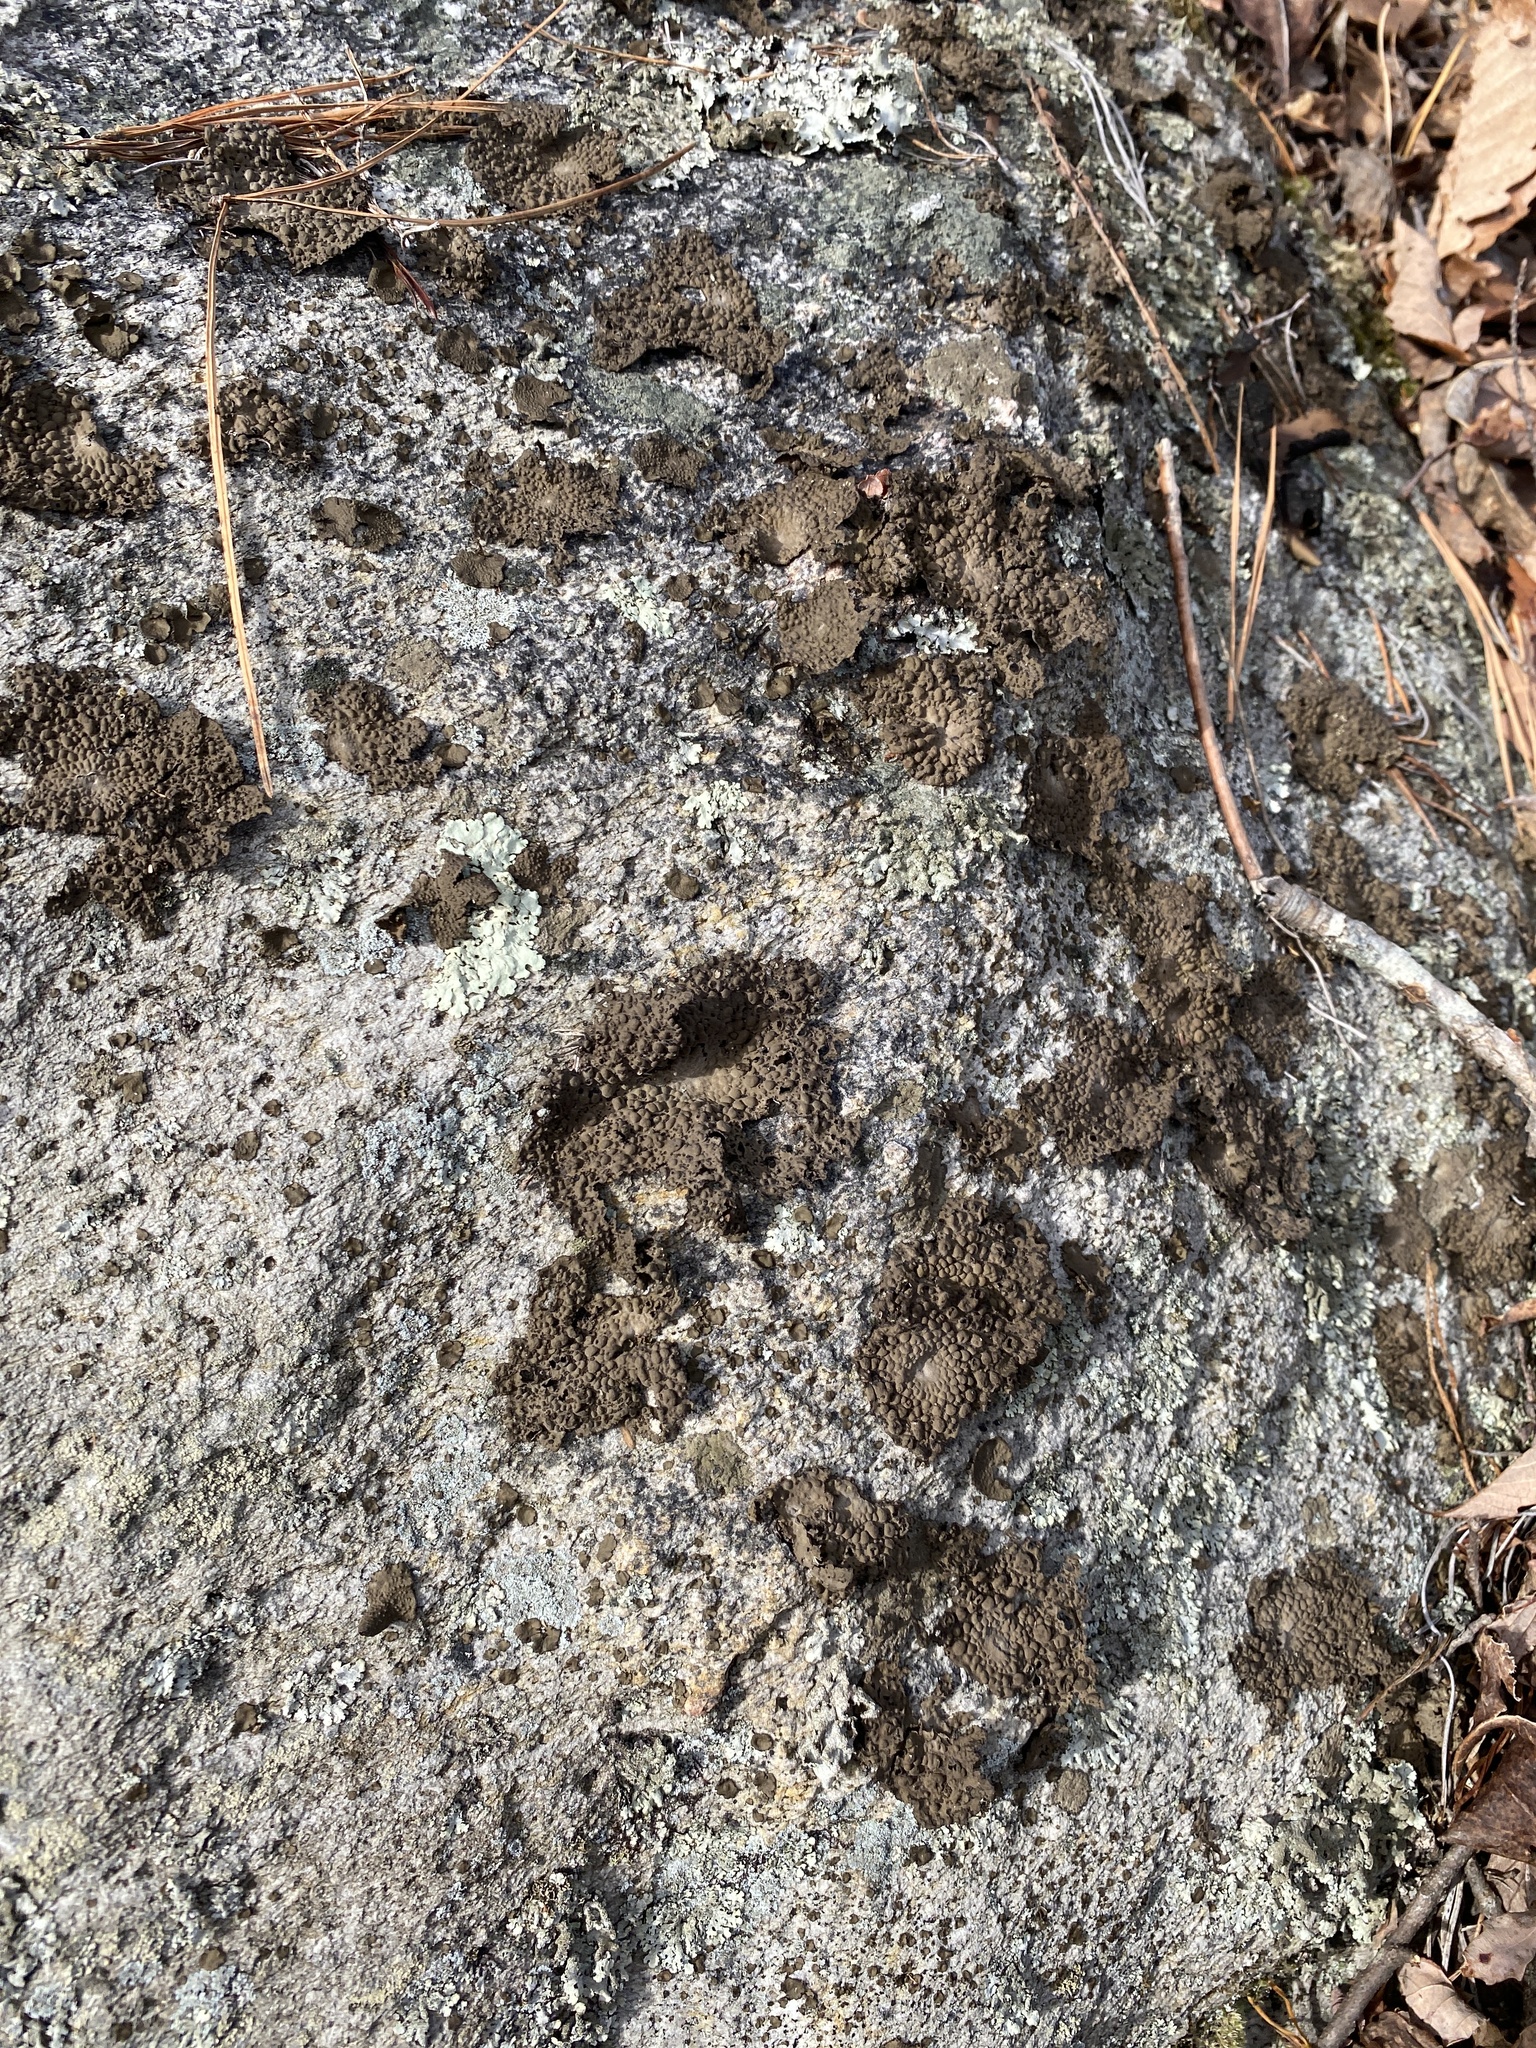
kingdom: Fungi
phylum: Ascomycota
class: Lecanoromycetes
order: Umbilicariales
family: Umbilicariaceae
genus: Lasallia
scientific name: Lasallia papulosa
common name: Common toadskin lichen
